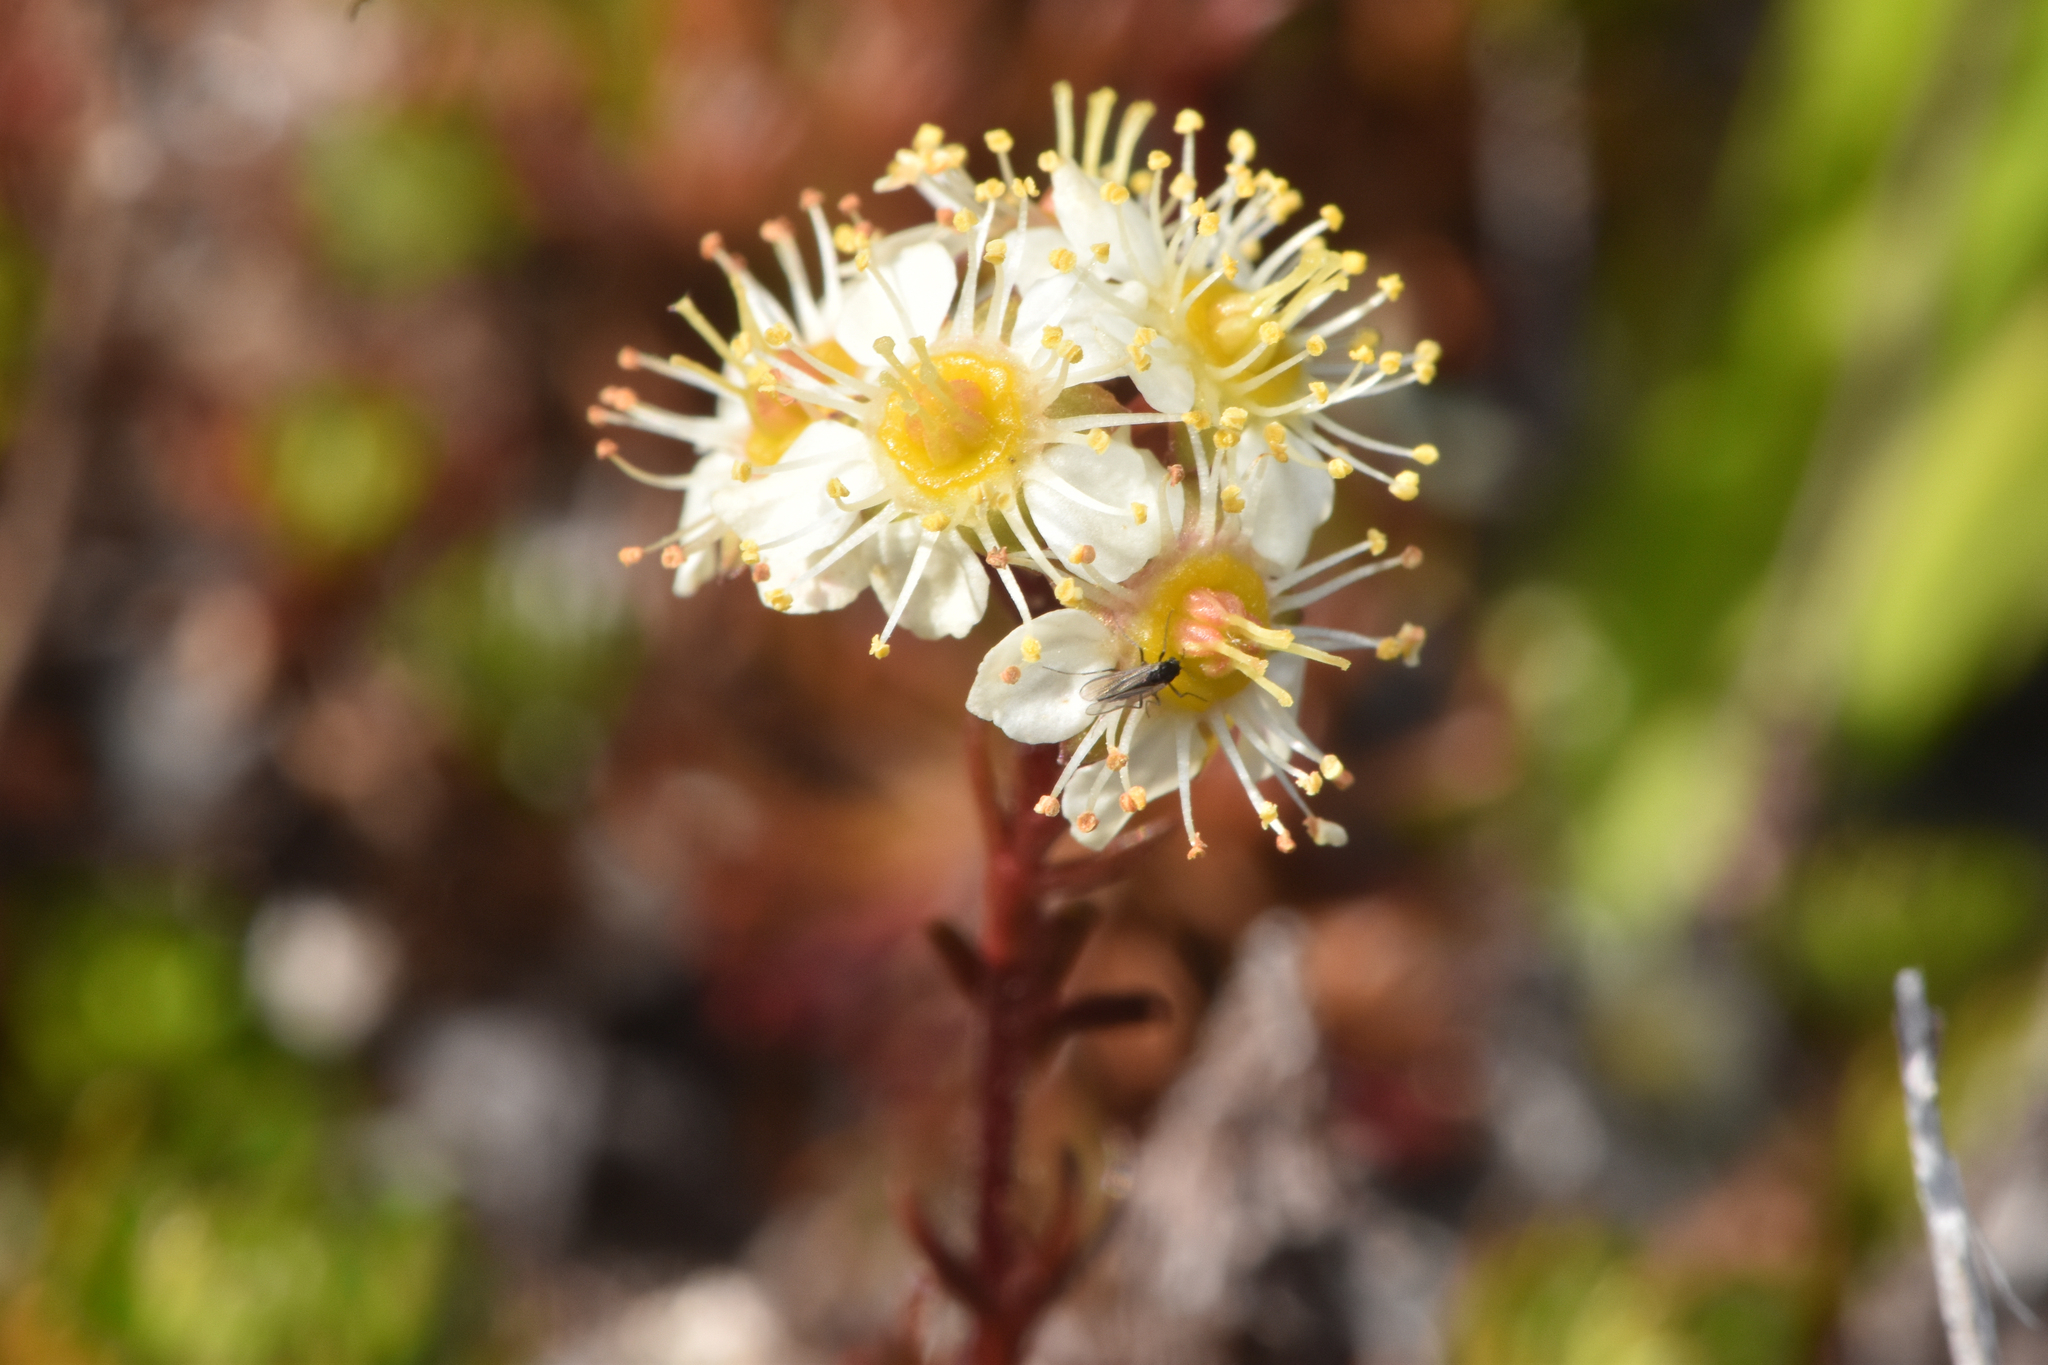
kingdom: Plantae
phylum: Tracheophyta
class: Magnoliopsida
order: Rosales
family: Rosaceae
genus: Luetkea
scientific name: Luetkea pectinata
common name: Partridgefoot
